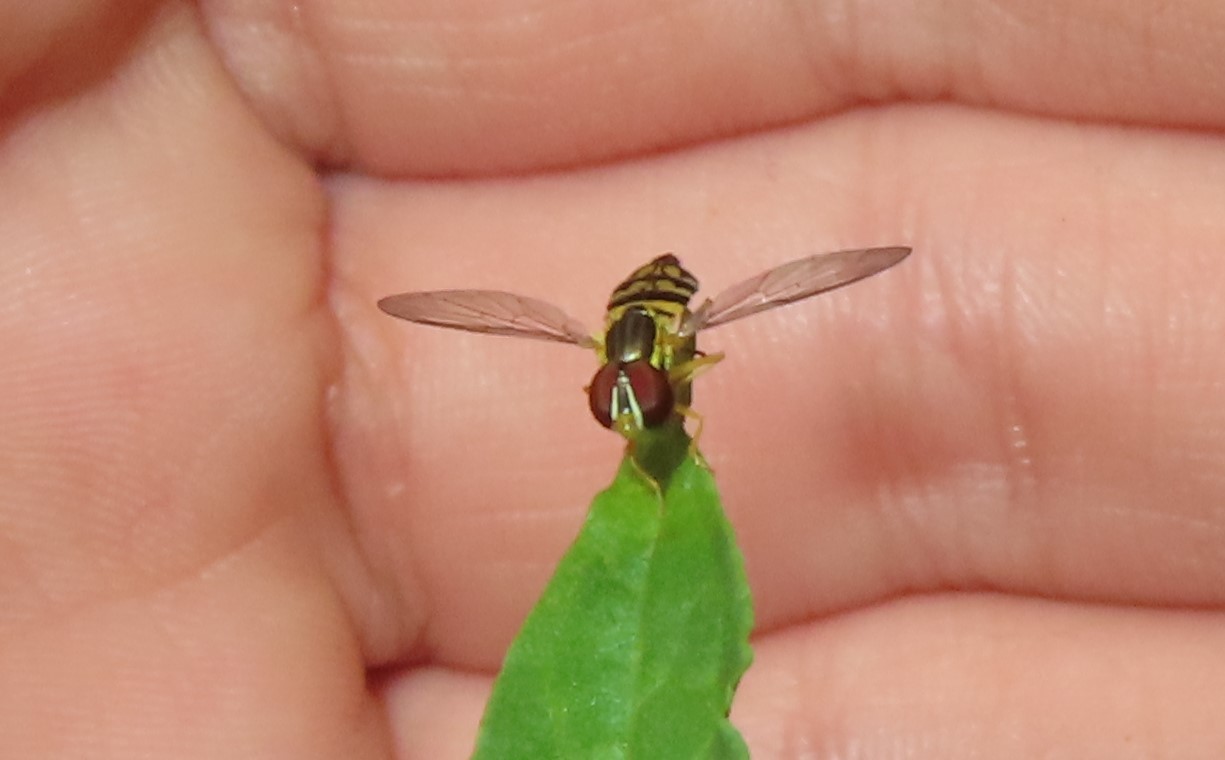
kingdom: Animalia
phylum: Arthropoda
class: Insecta
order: Diptera
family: Syrphidae
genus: Toxomerus
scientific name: Toxomerus geminatus
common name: Eastern calligrapher
